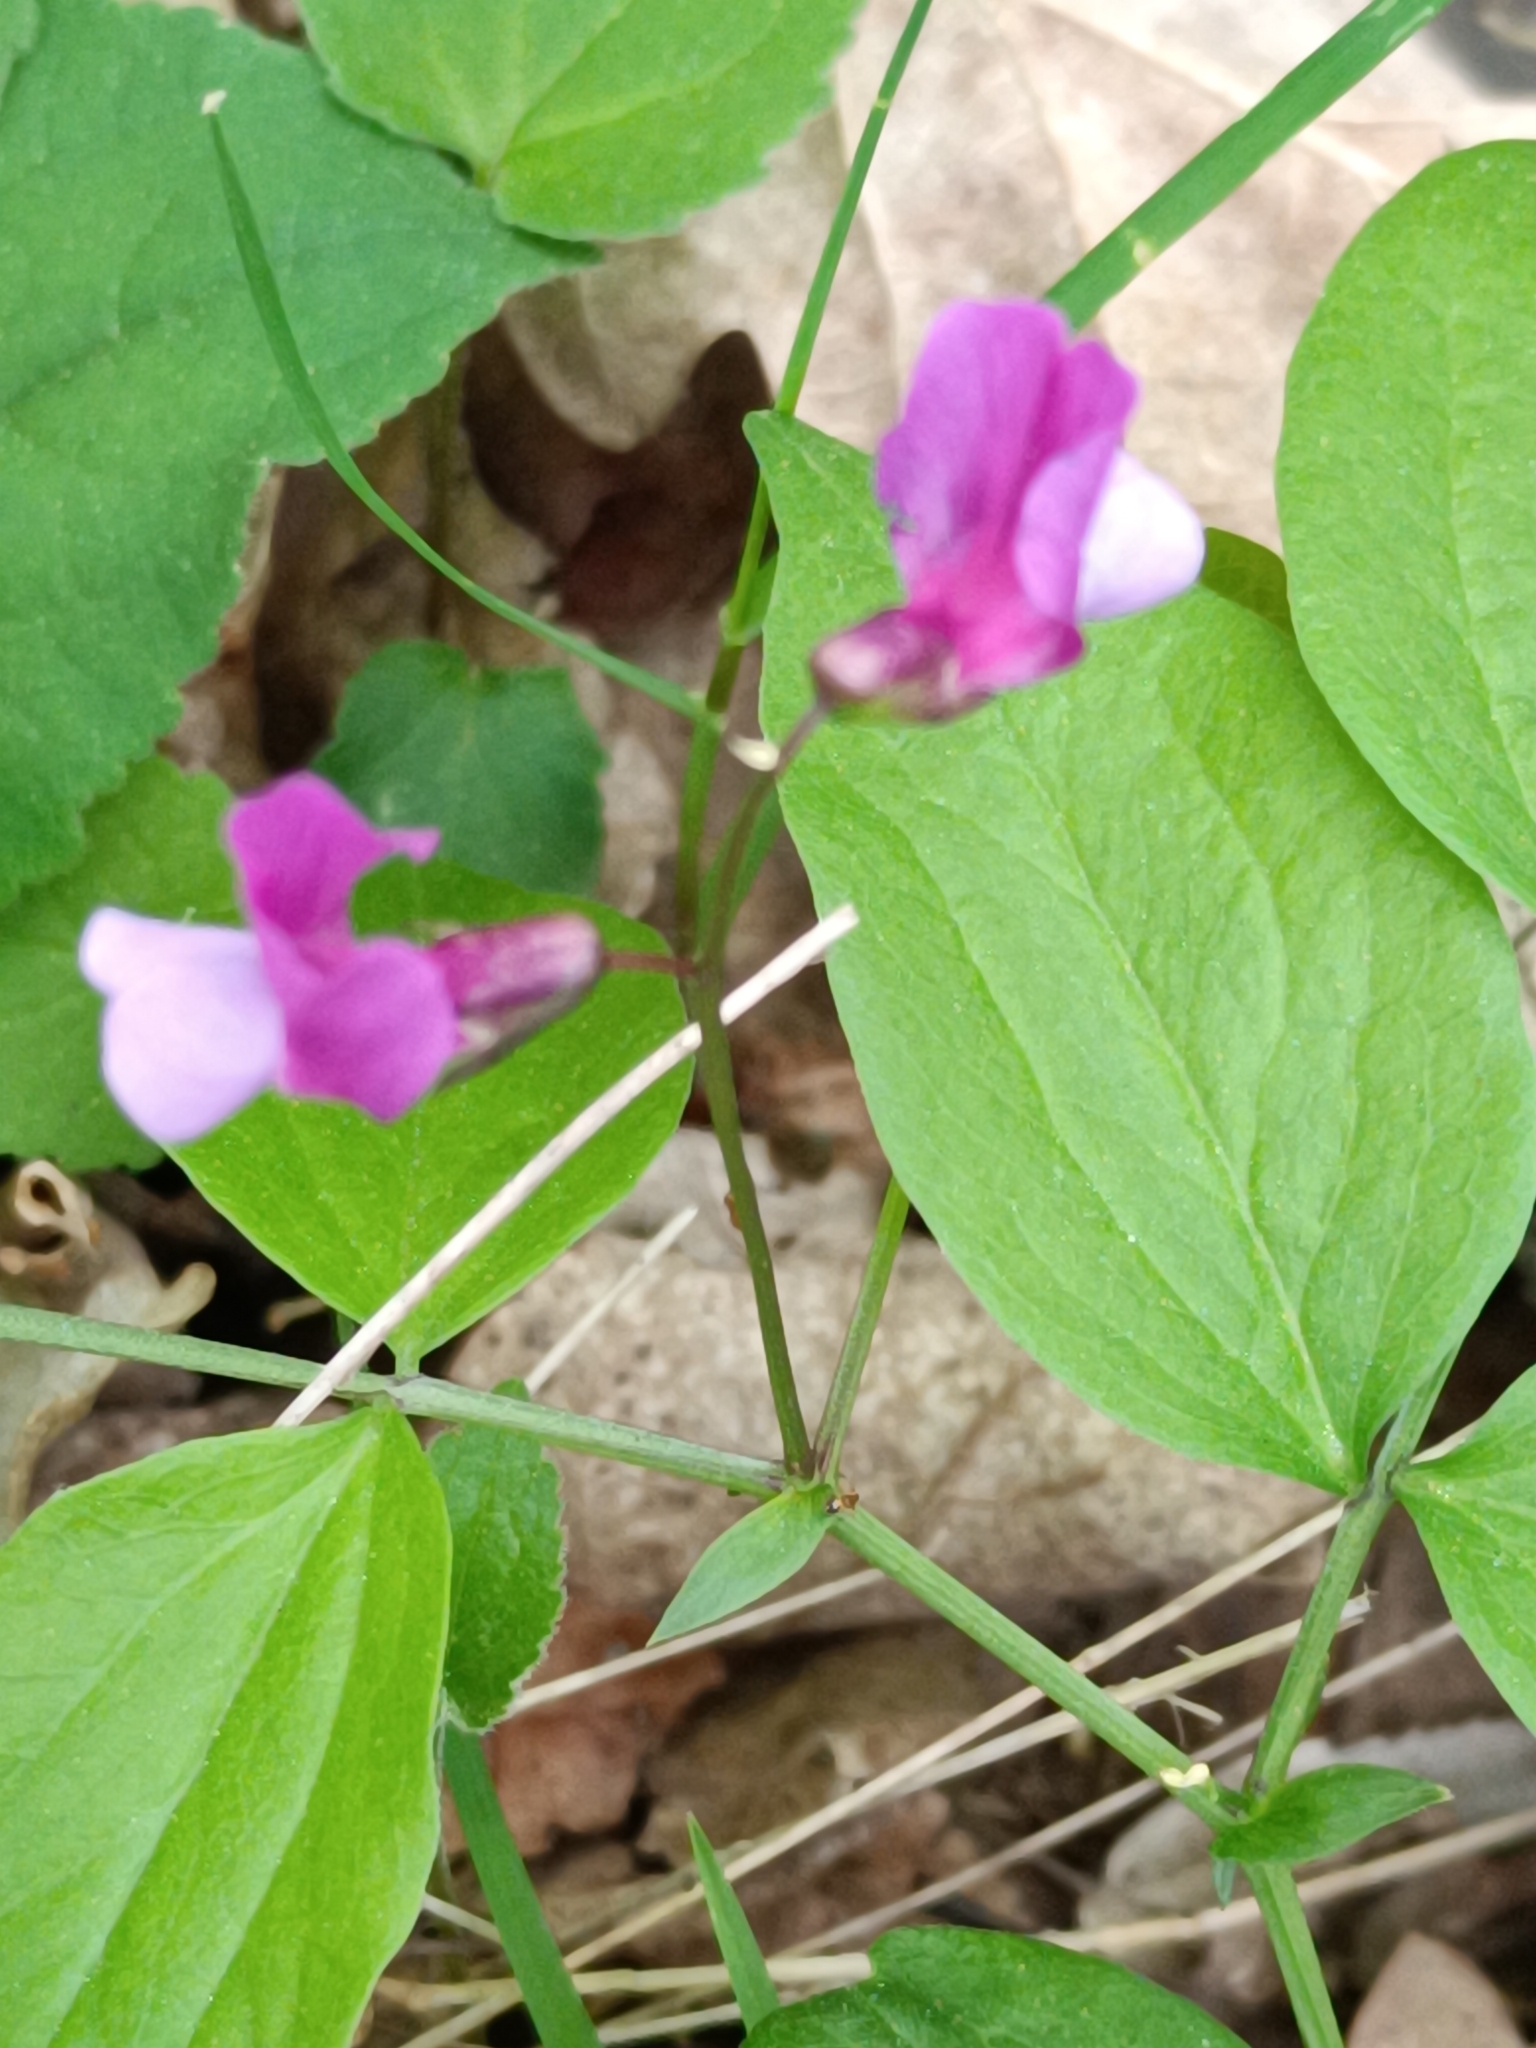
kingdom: Plantae
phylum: Tracheophyta
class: Magnoliopsida
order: Fabales
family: Fabaceae
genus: Lathyrus
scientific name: Lathyrus vernus
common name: Spring pea
